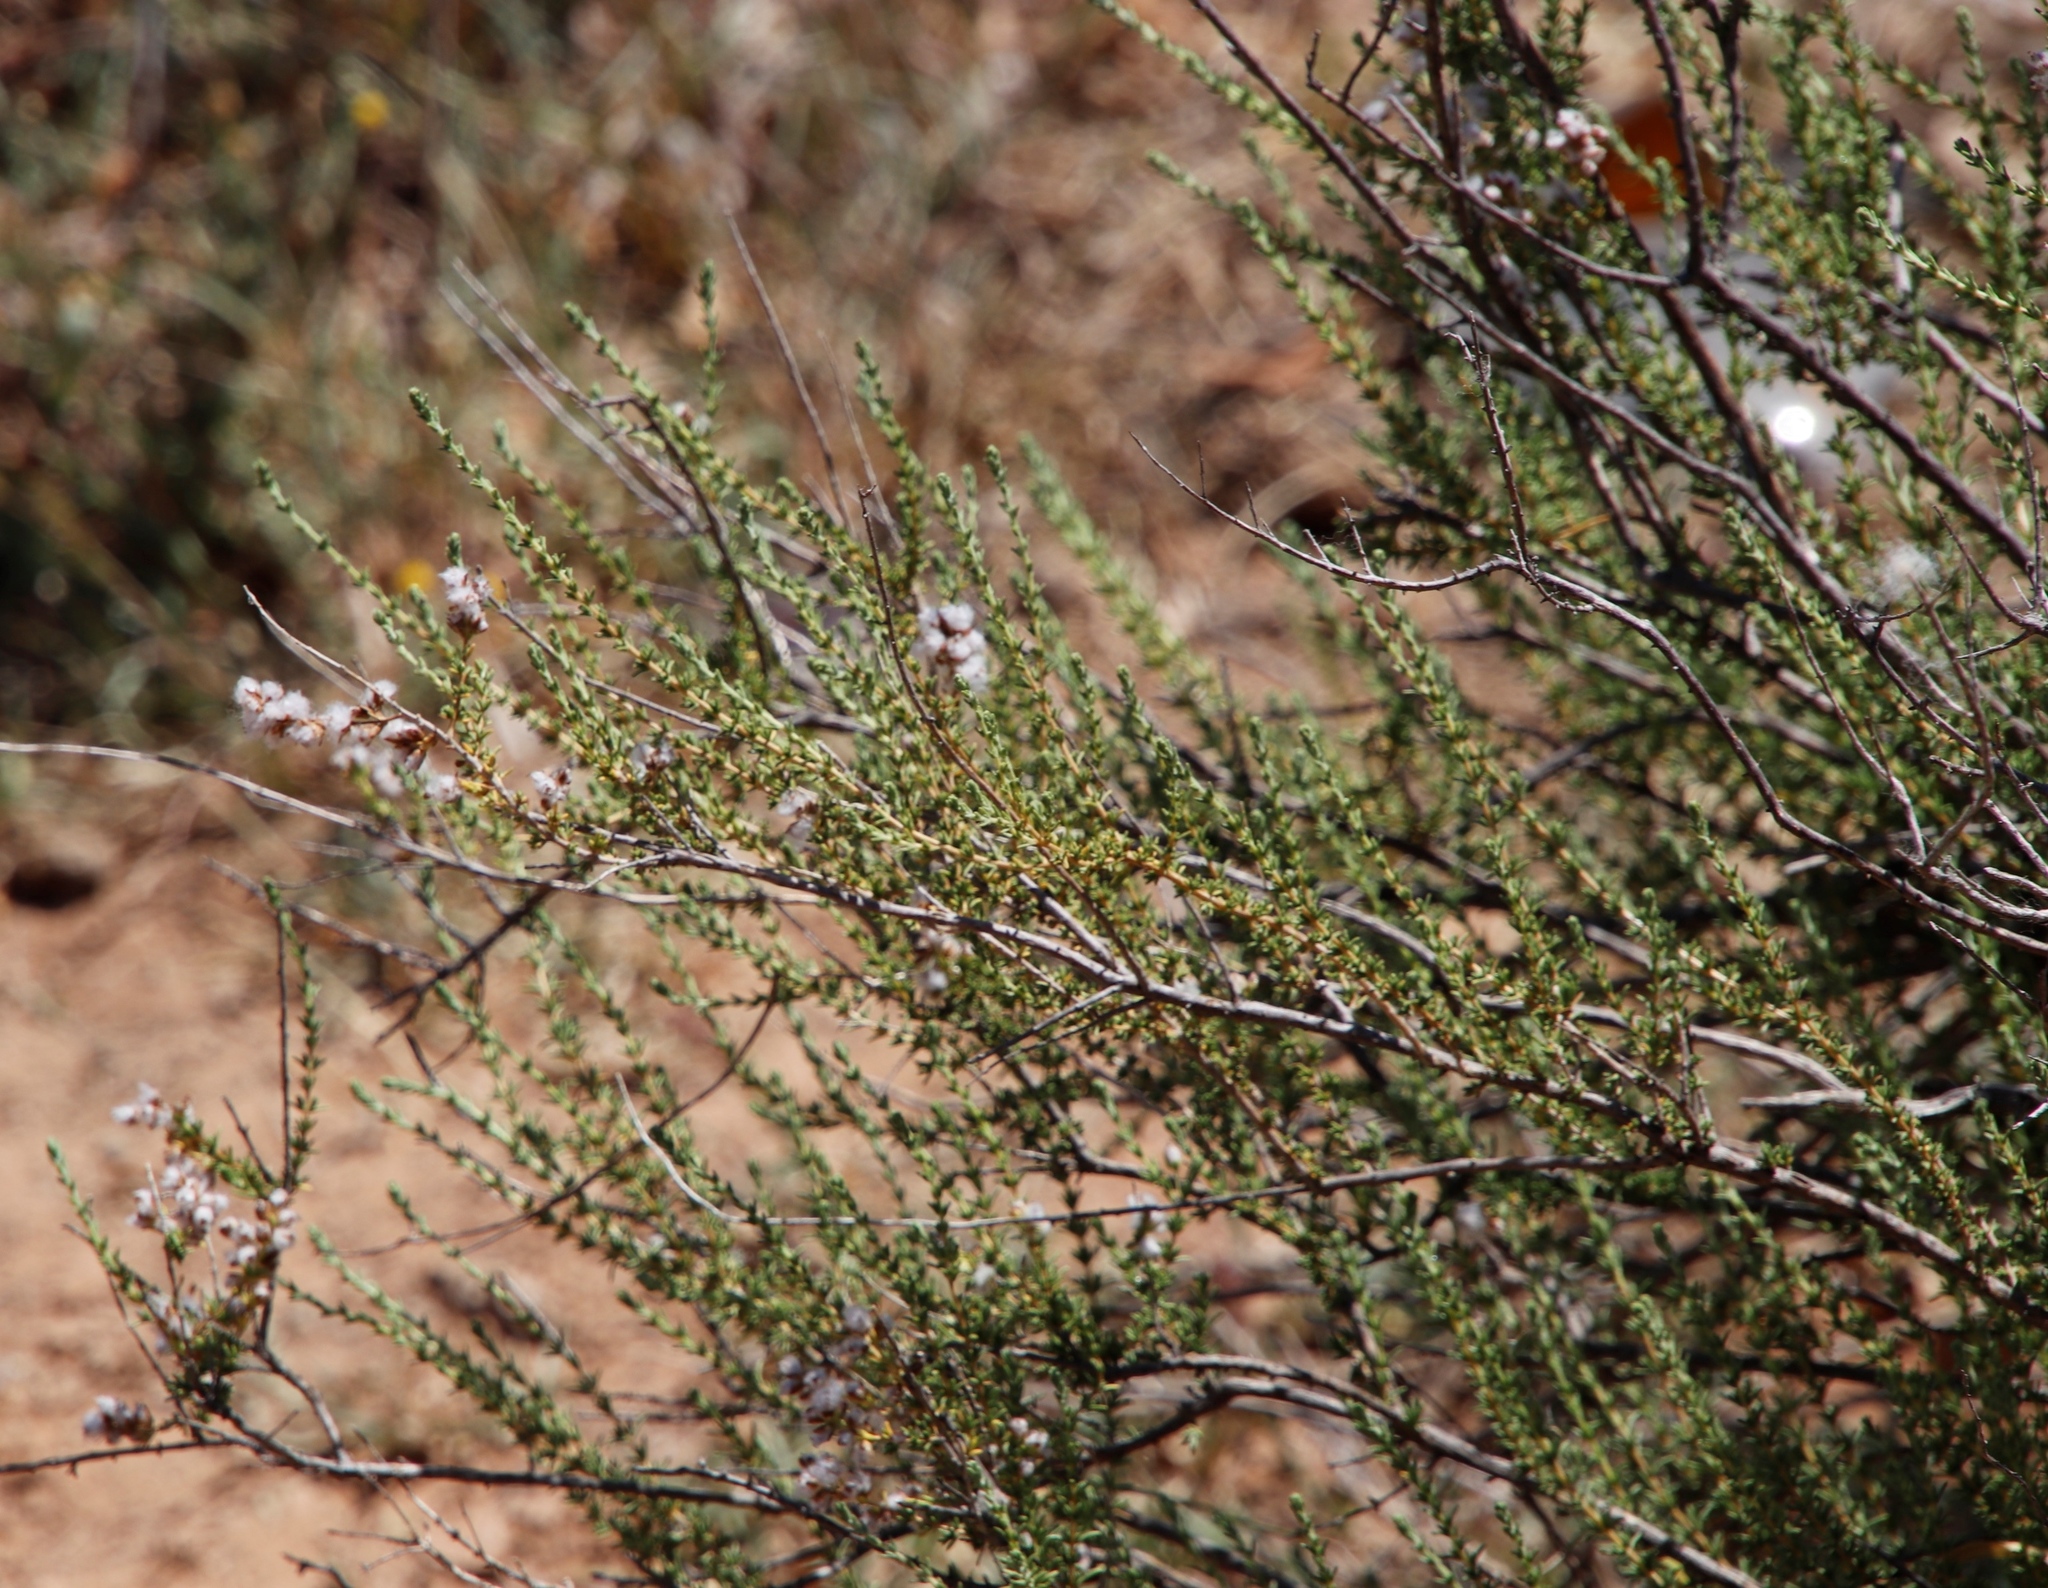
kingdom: Plantae
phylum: Tracheophyta
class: Magnoliopsida
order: Asterales
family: Asteraceae
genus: Eriocephalus
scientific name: Eriocephalus ericoides
